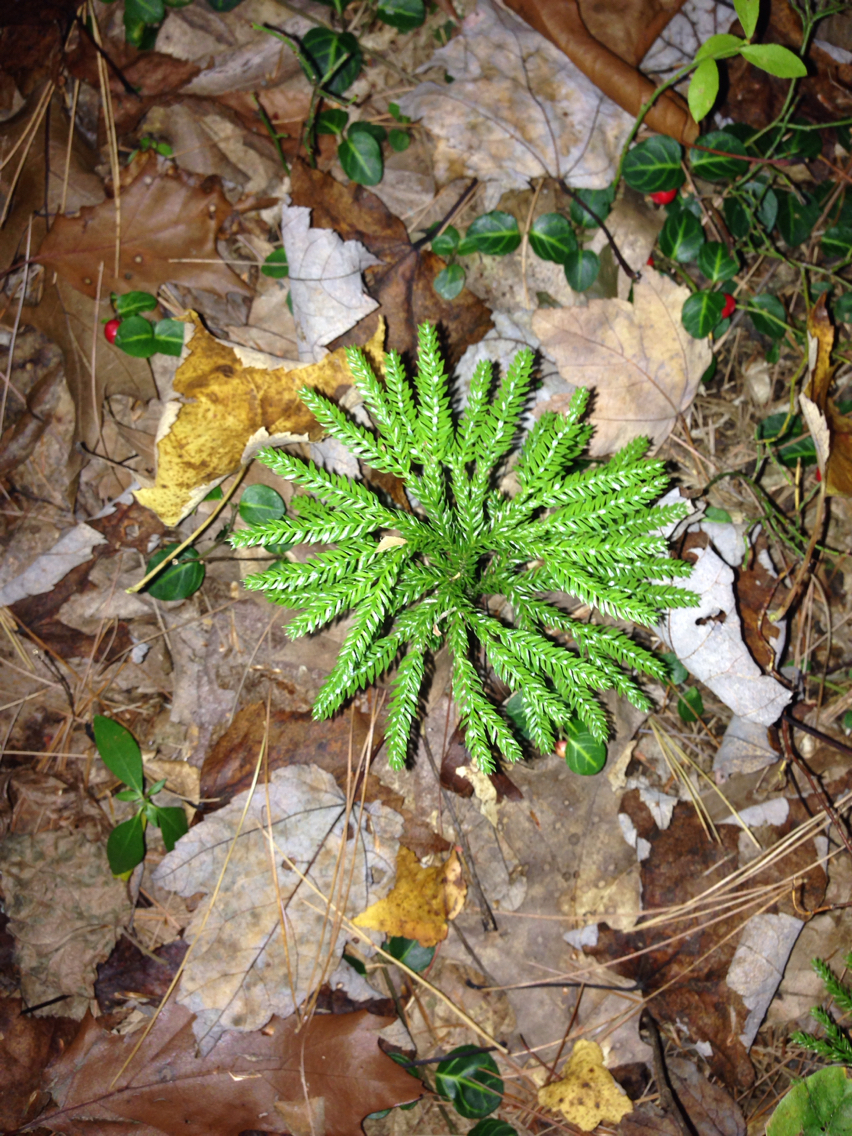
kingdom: Plantae
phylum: Tracheophyta
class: Lycopodiopsida
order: Lycopodiales
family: Lycopodiaceae
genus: Dendrolycopodium
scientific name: Dendrolycopodium obscurum
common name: Common ground-pine
